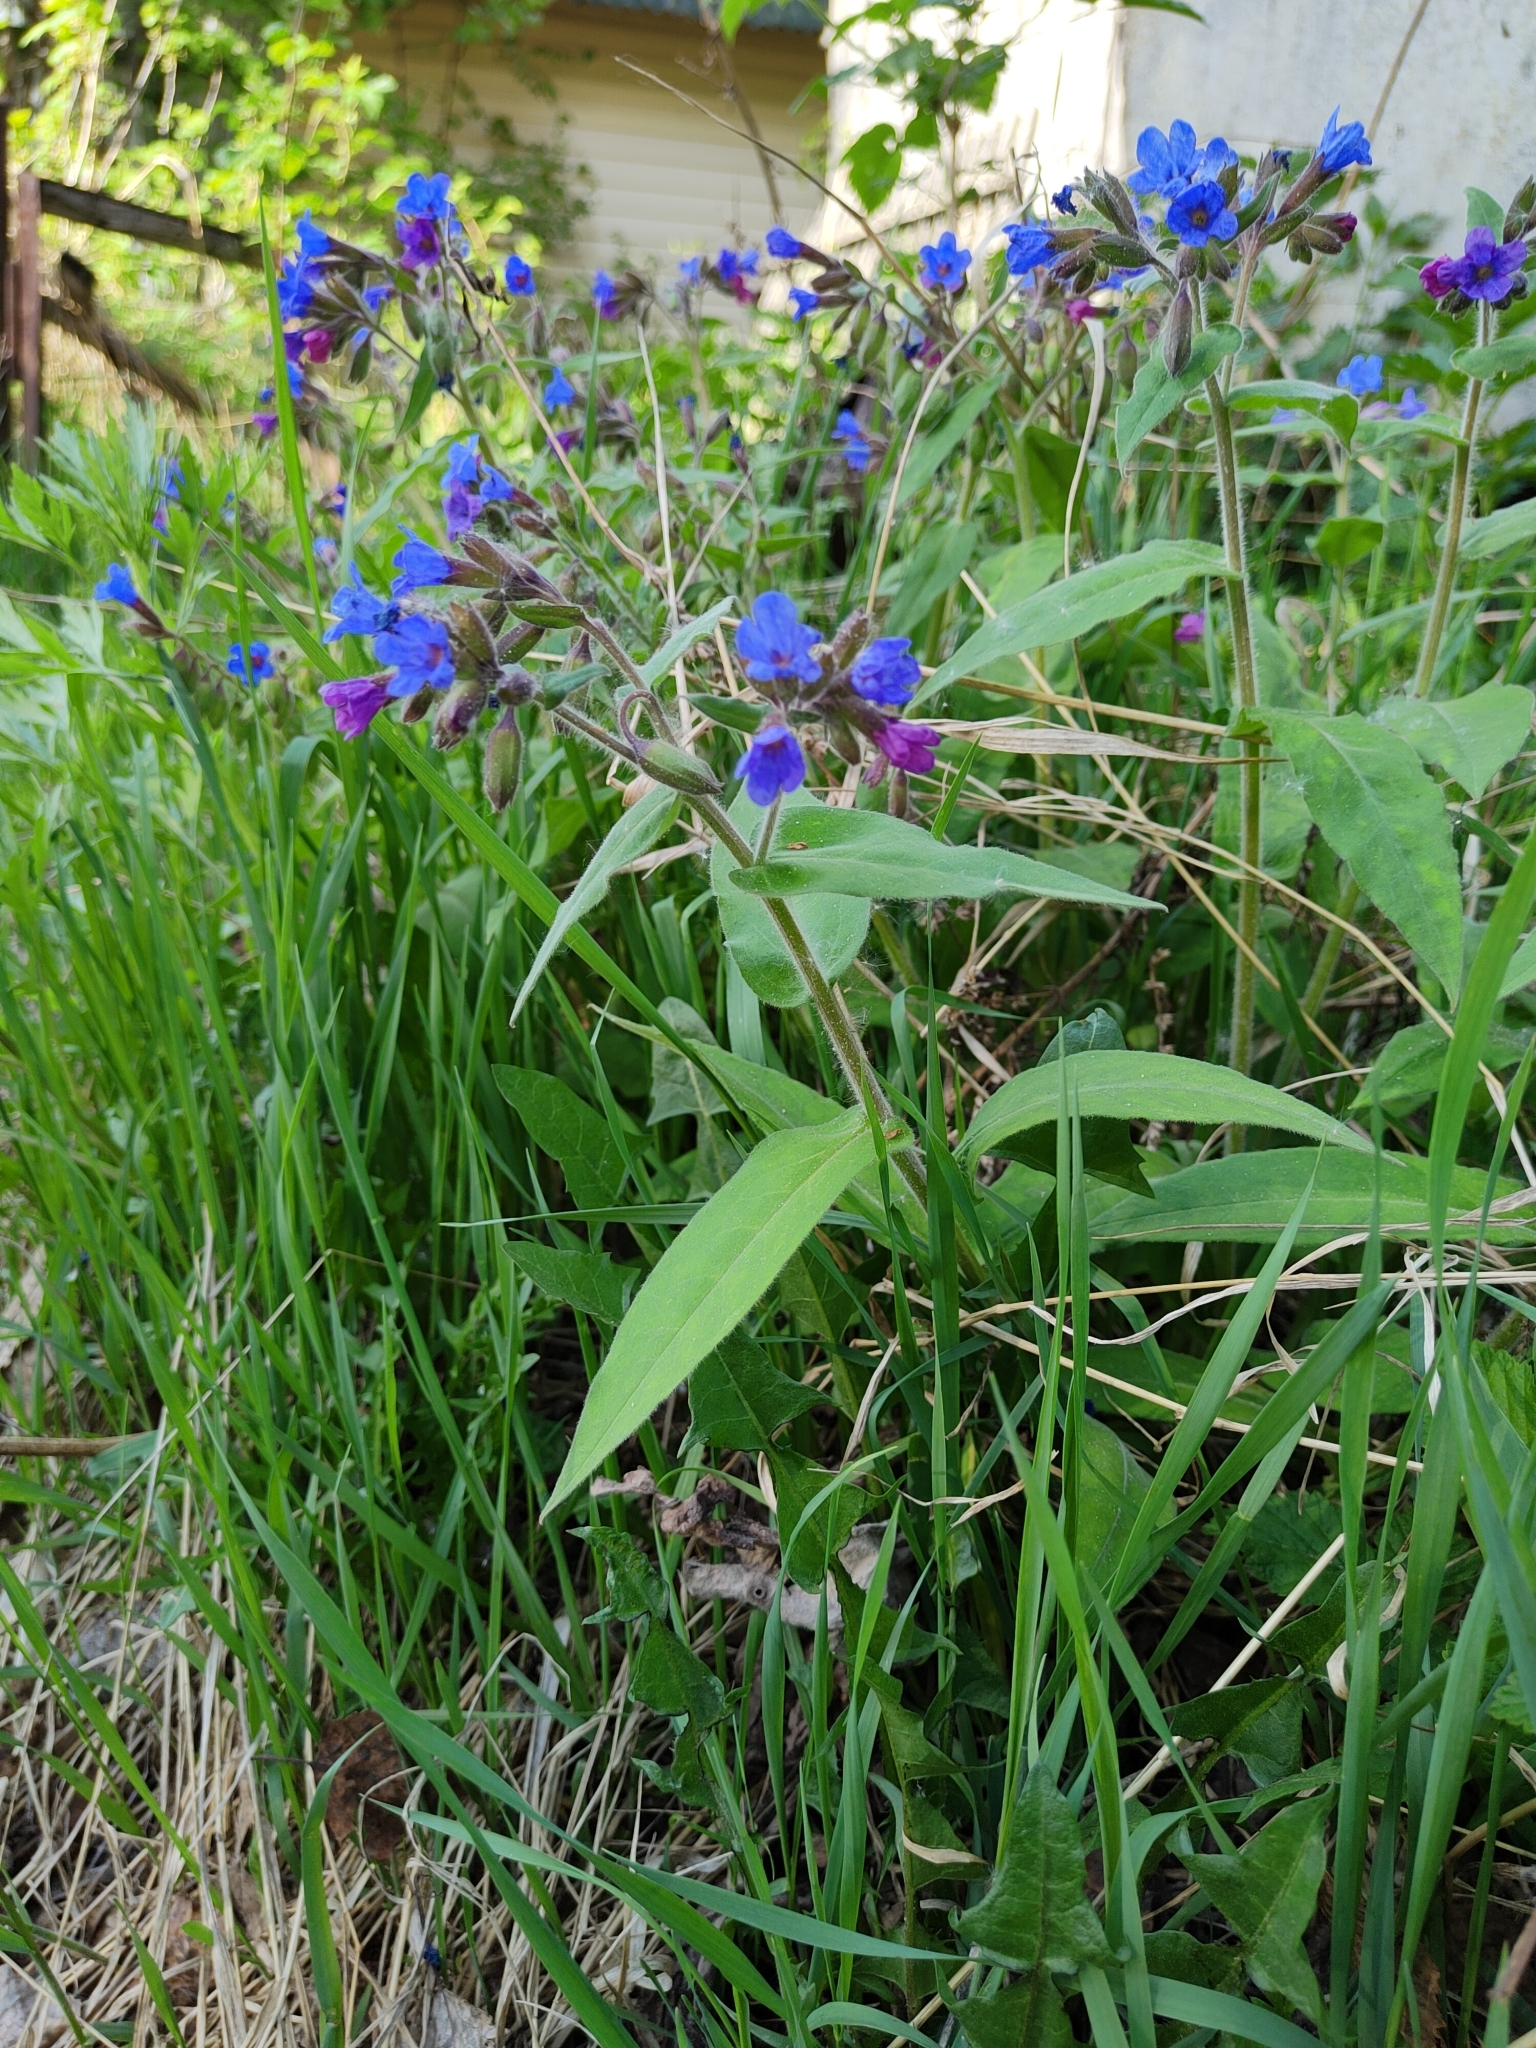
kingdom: Plantae
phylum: Tracheophyta
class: Magnoliopsida
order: Boraginales
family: Boraginaceae
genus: Pulmonaria
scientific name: Pulmonaria mollis
